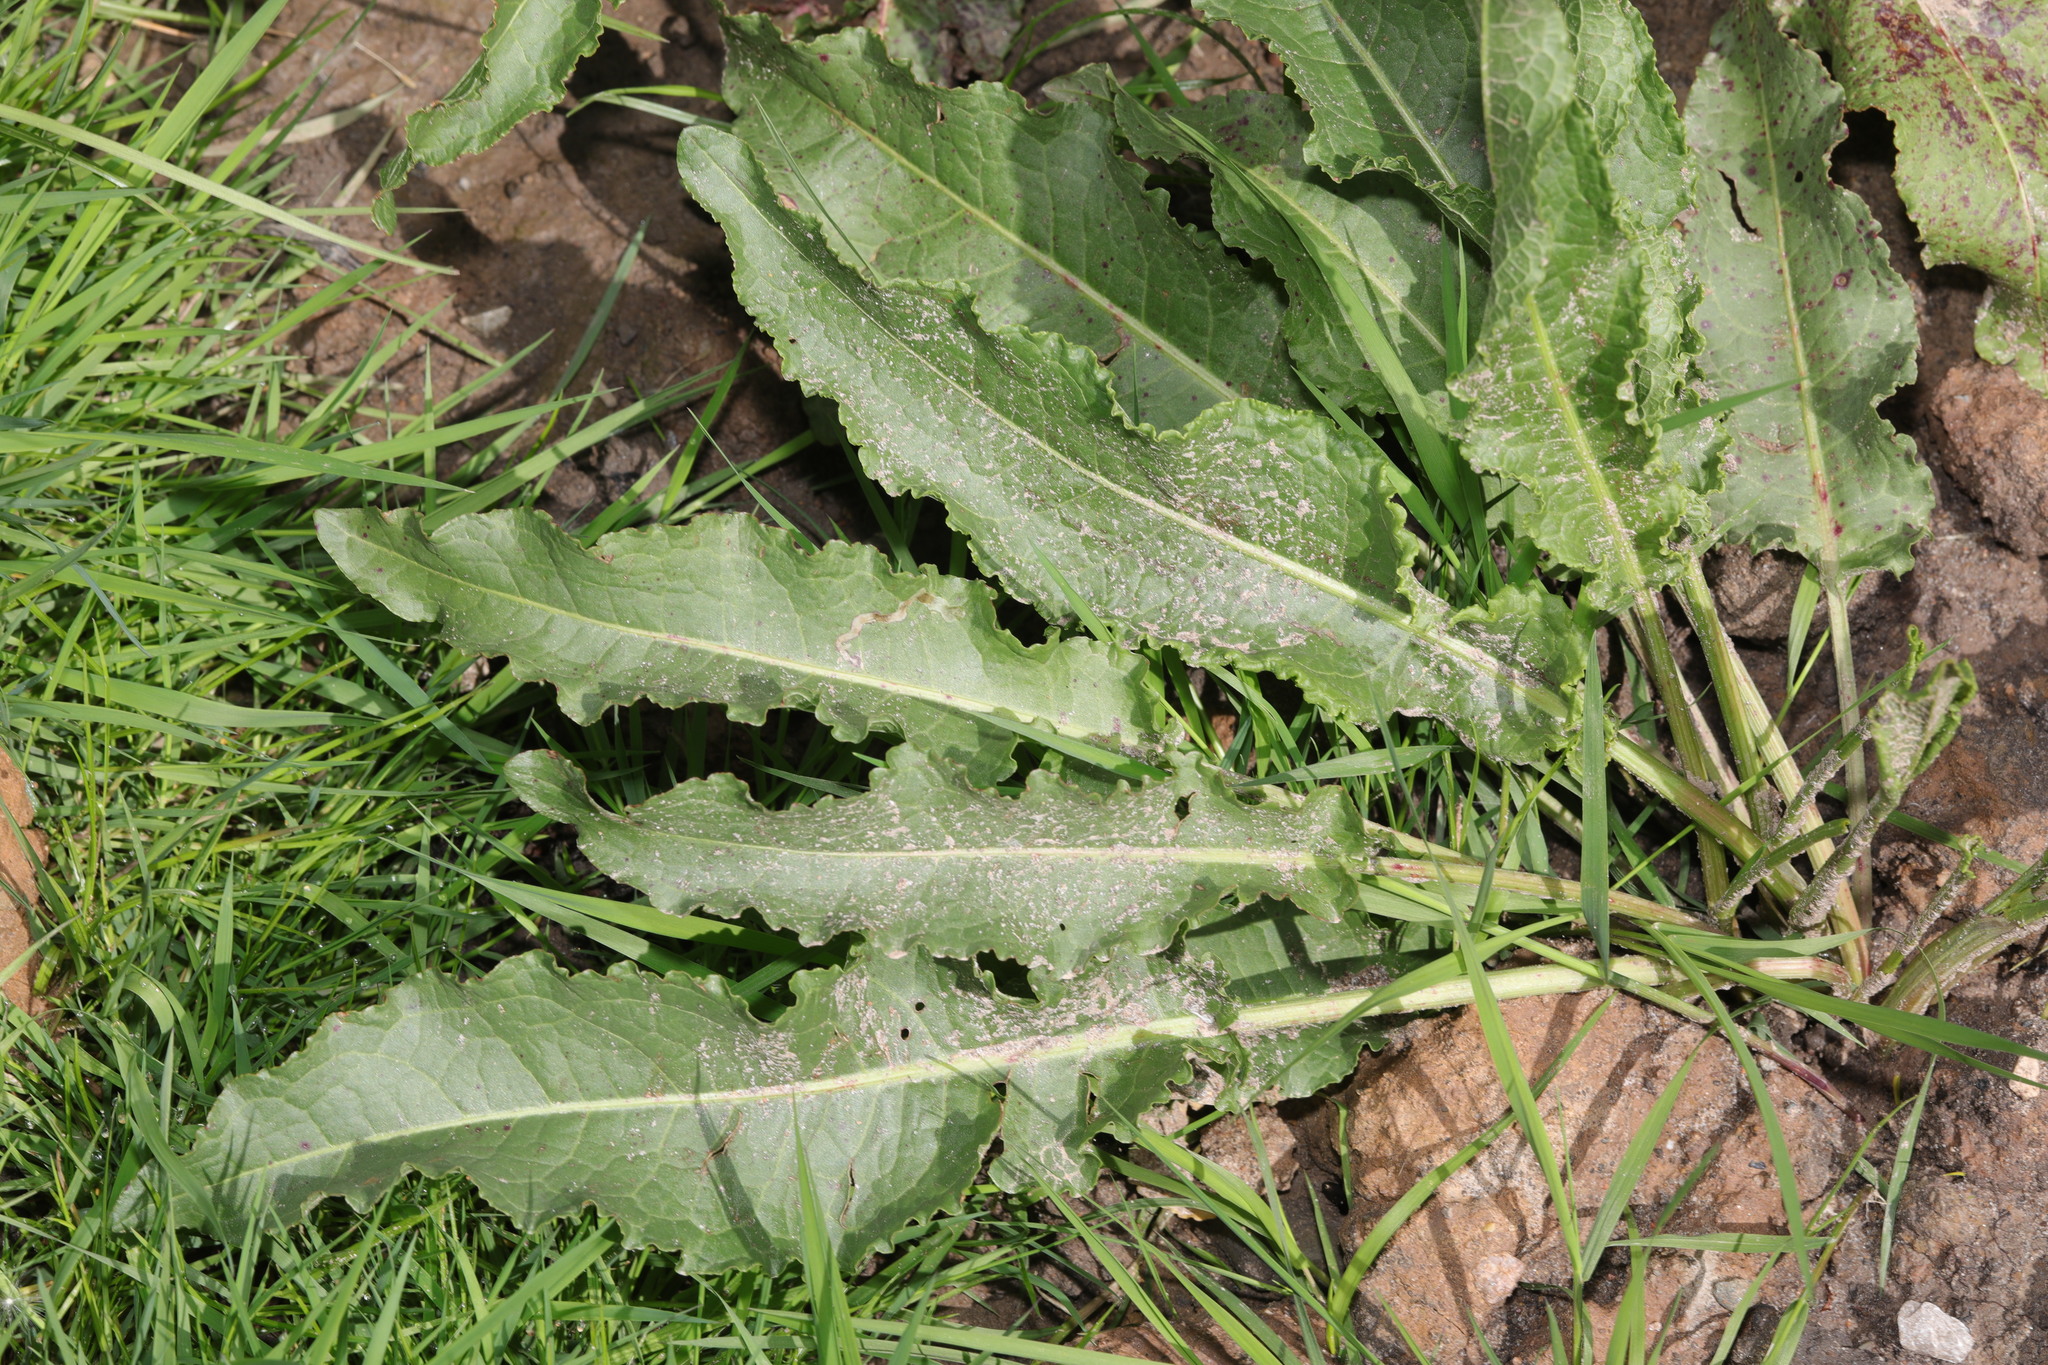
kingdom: Plantae
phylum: Tracheophyta
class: Magnoliopsida
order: Caryophyllales
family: Polygonaceae
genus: Rumex
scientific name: Rumex crispus
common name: Curled dock
